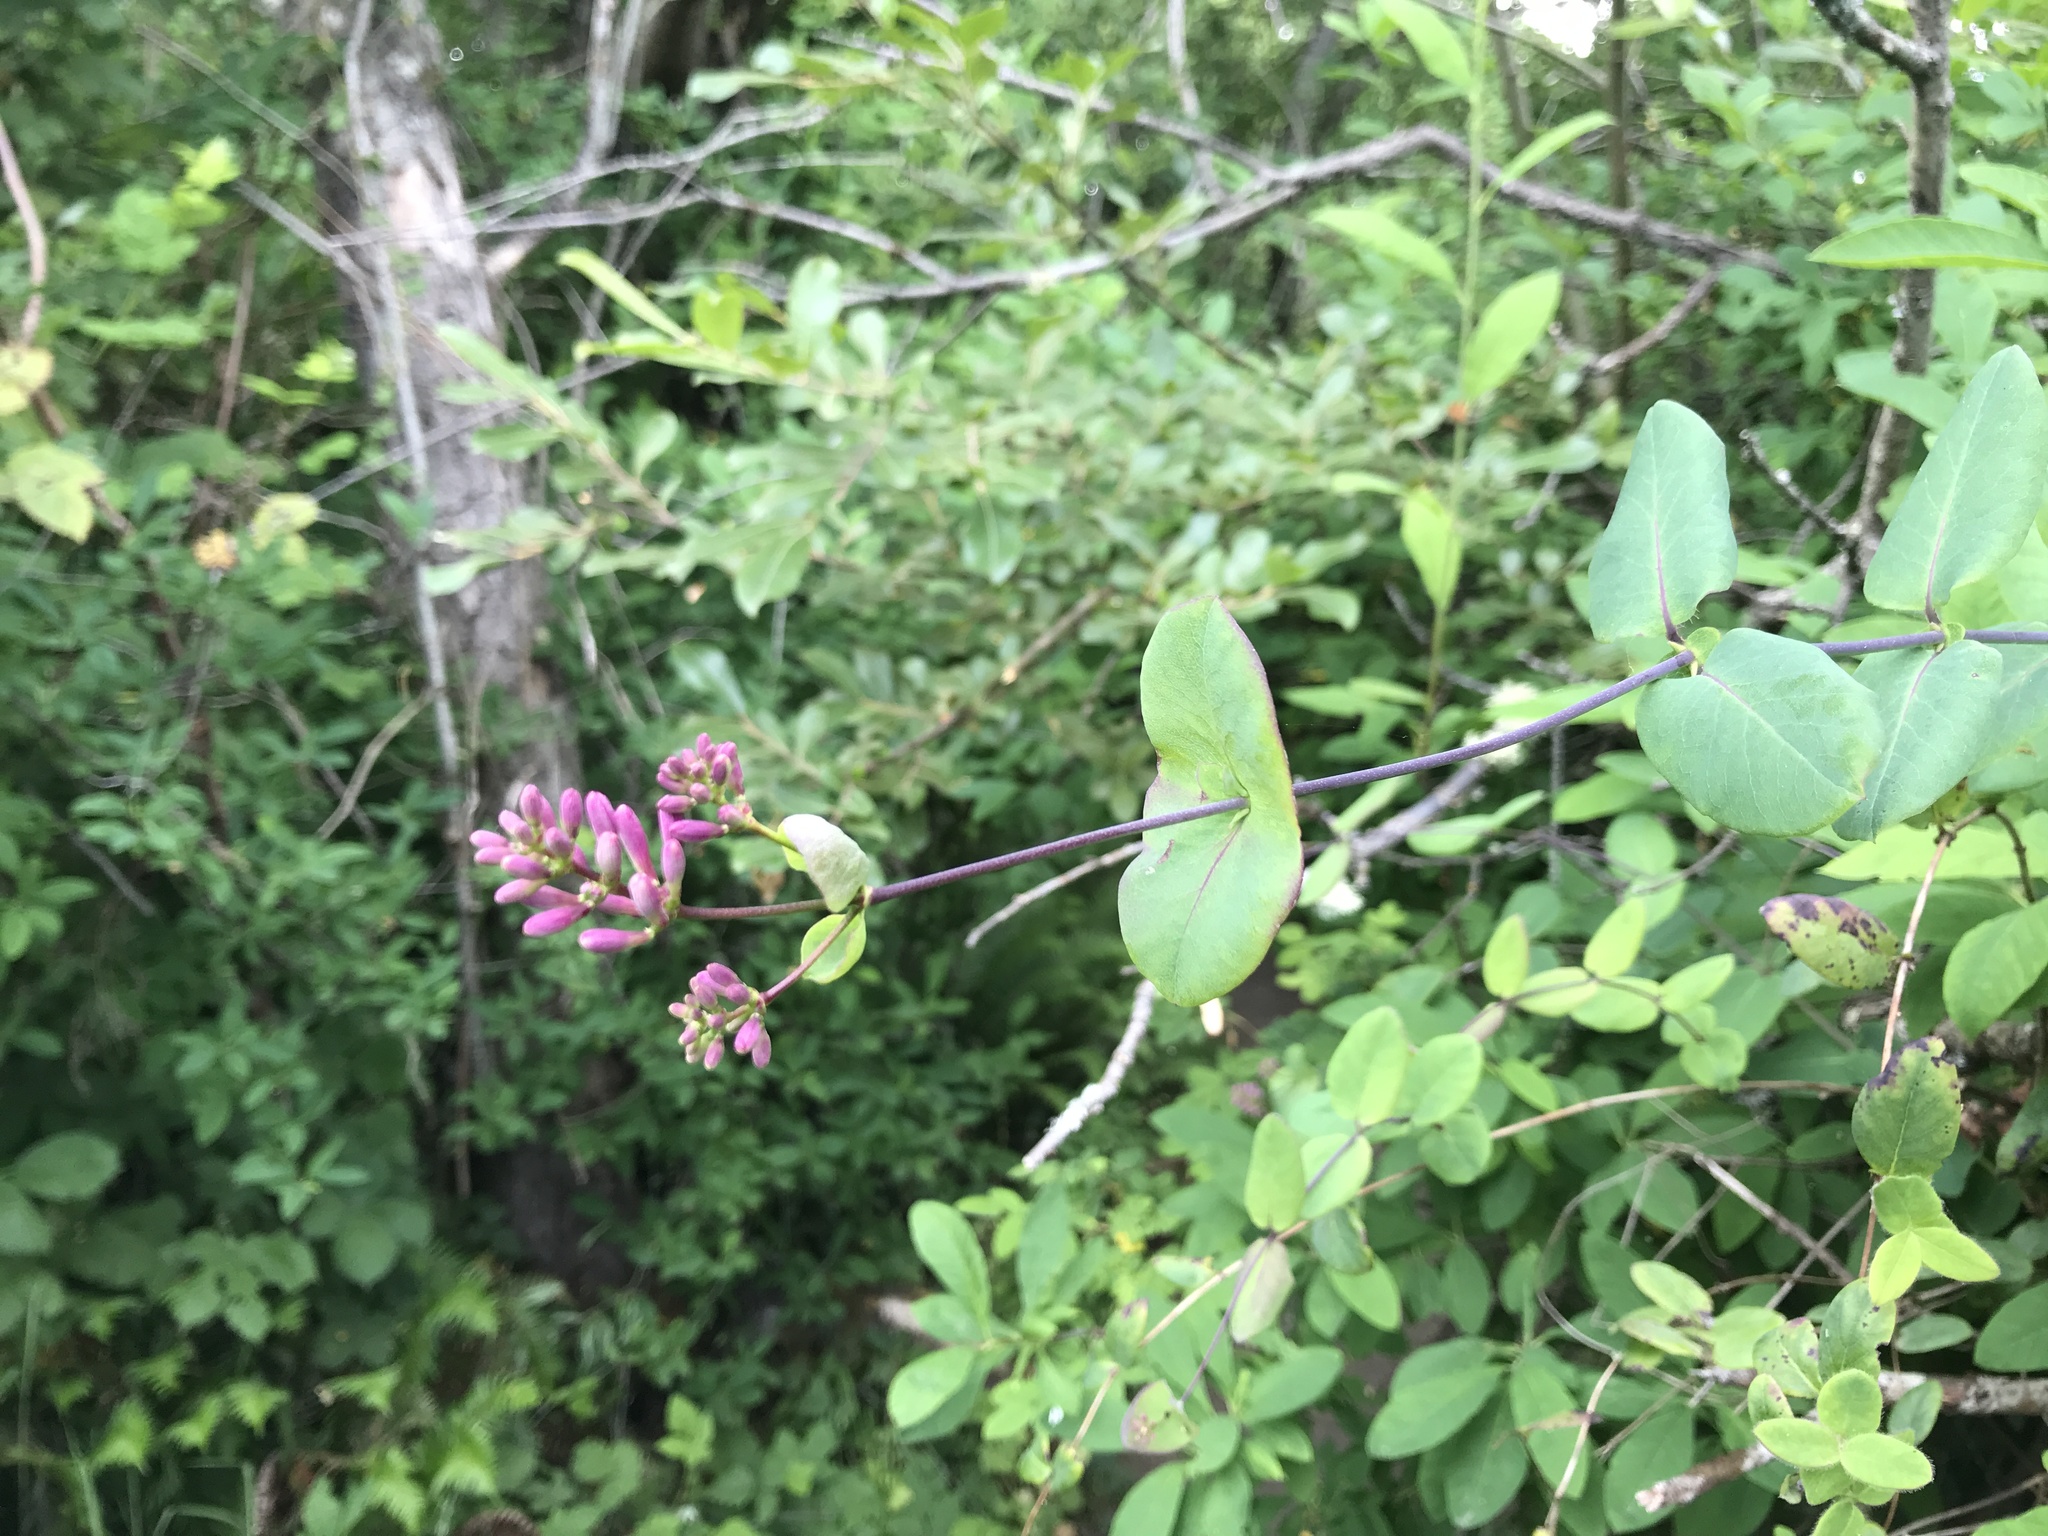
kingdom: Plantae
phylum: Tracheophyta
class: Magnoliopsida
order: Dipsacales
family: Caprifoliaceae
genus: Lonicera
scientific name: Lonicera hispidula
